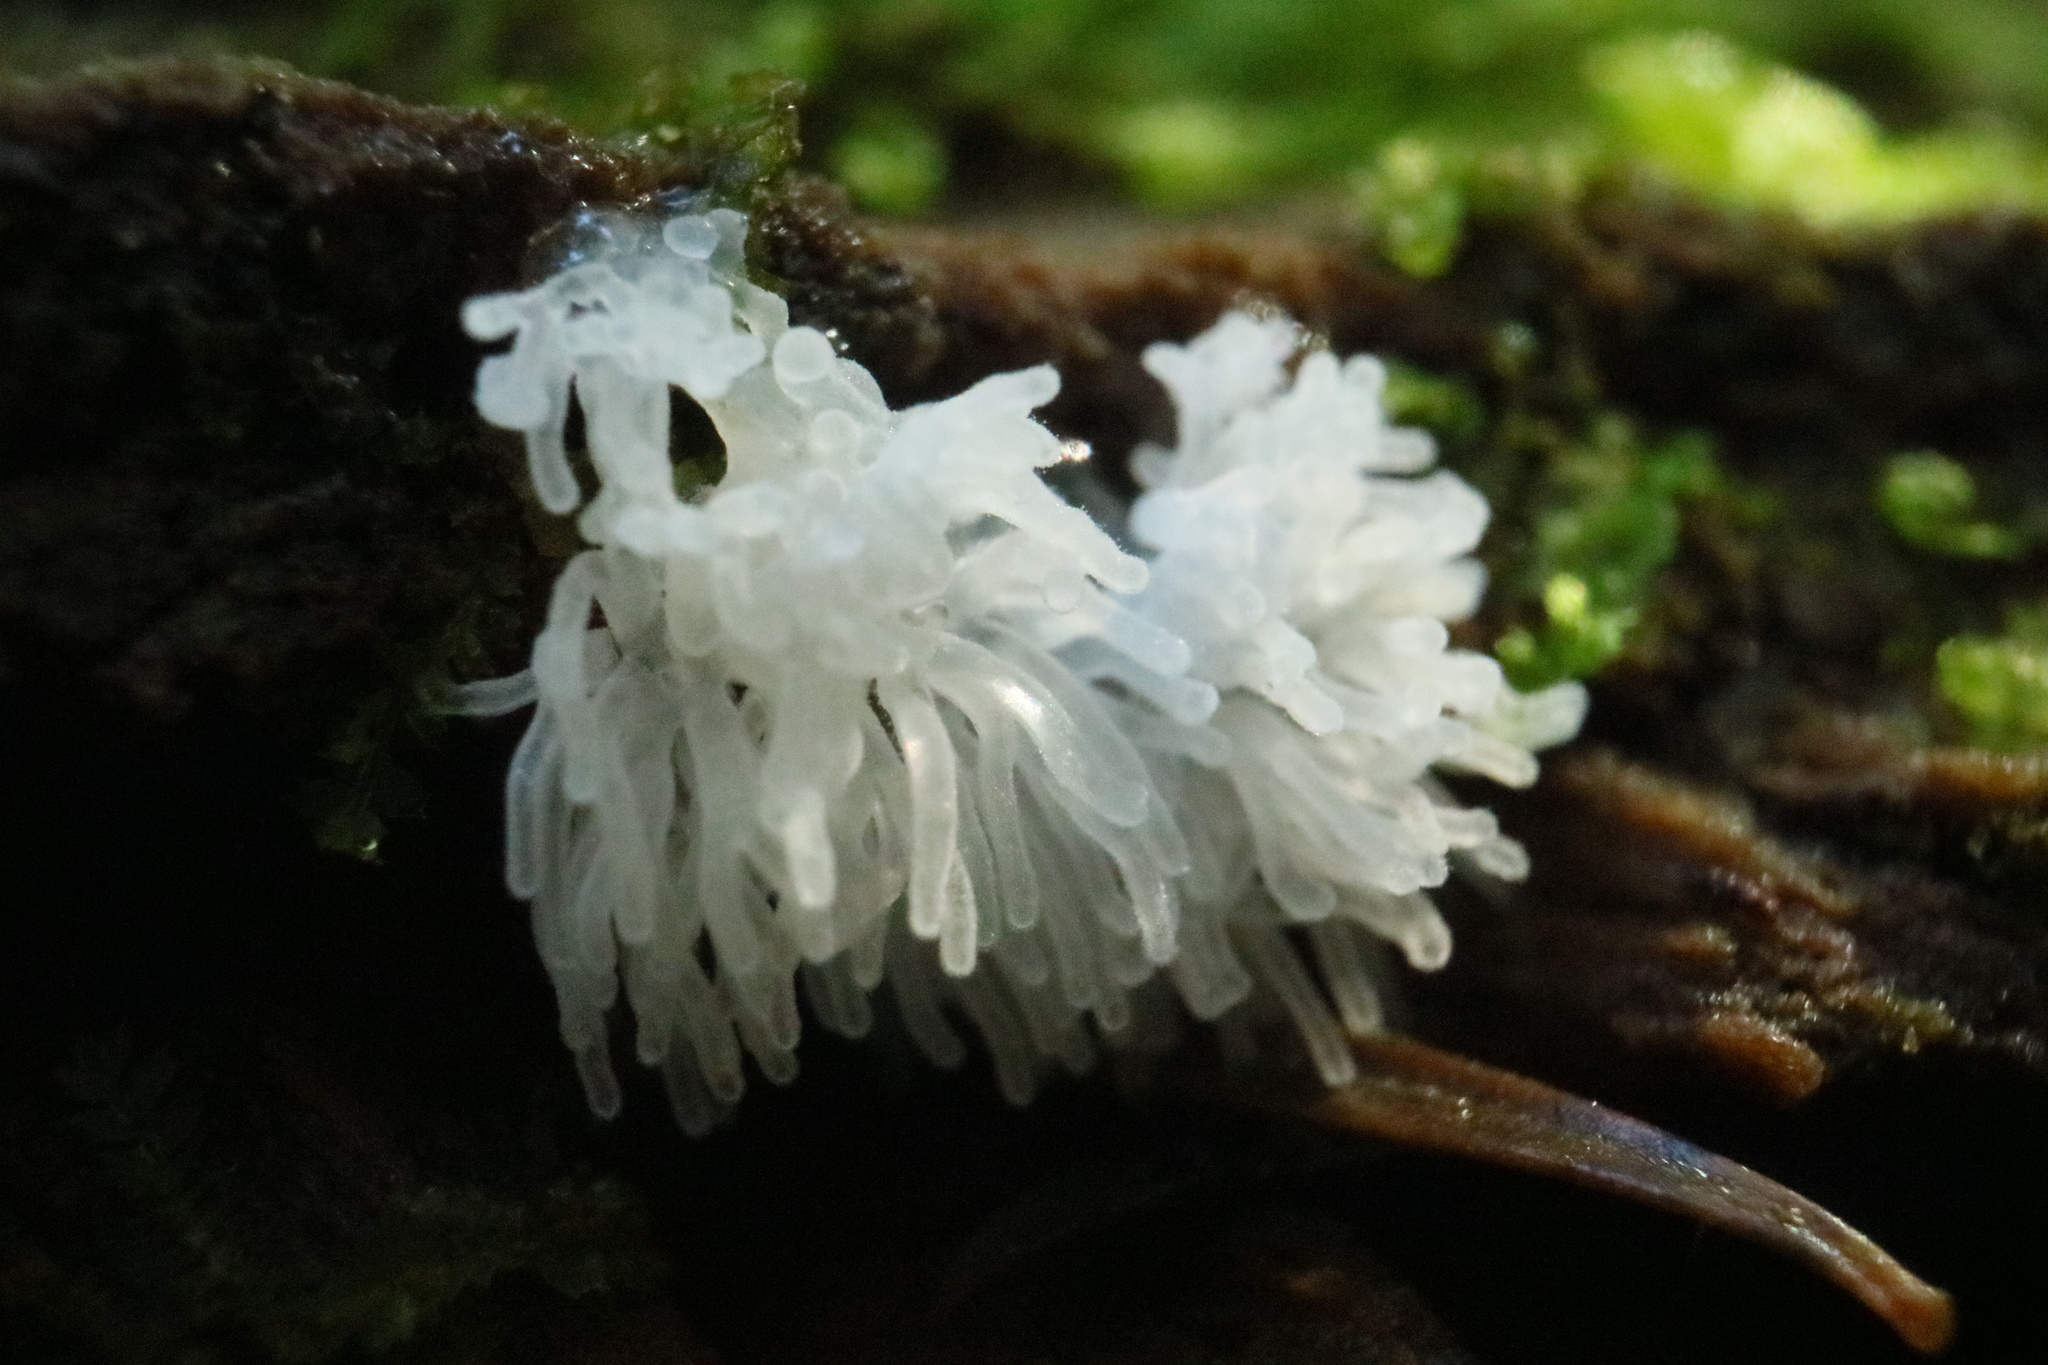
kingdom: Protozoa
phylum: Mycetozoa
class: Protosteliomycetes
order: Ceratiomyxales
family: Ceratiomyxaceae
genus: Ceratiomyxa
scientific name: Ceratiomyxa fruticulosa
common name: Honeycomb coral slime mold
